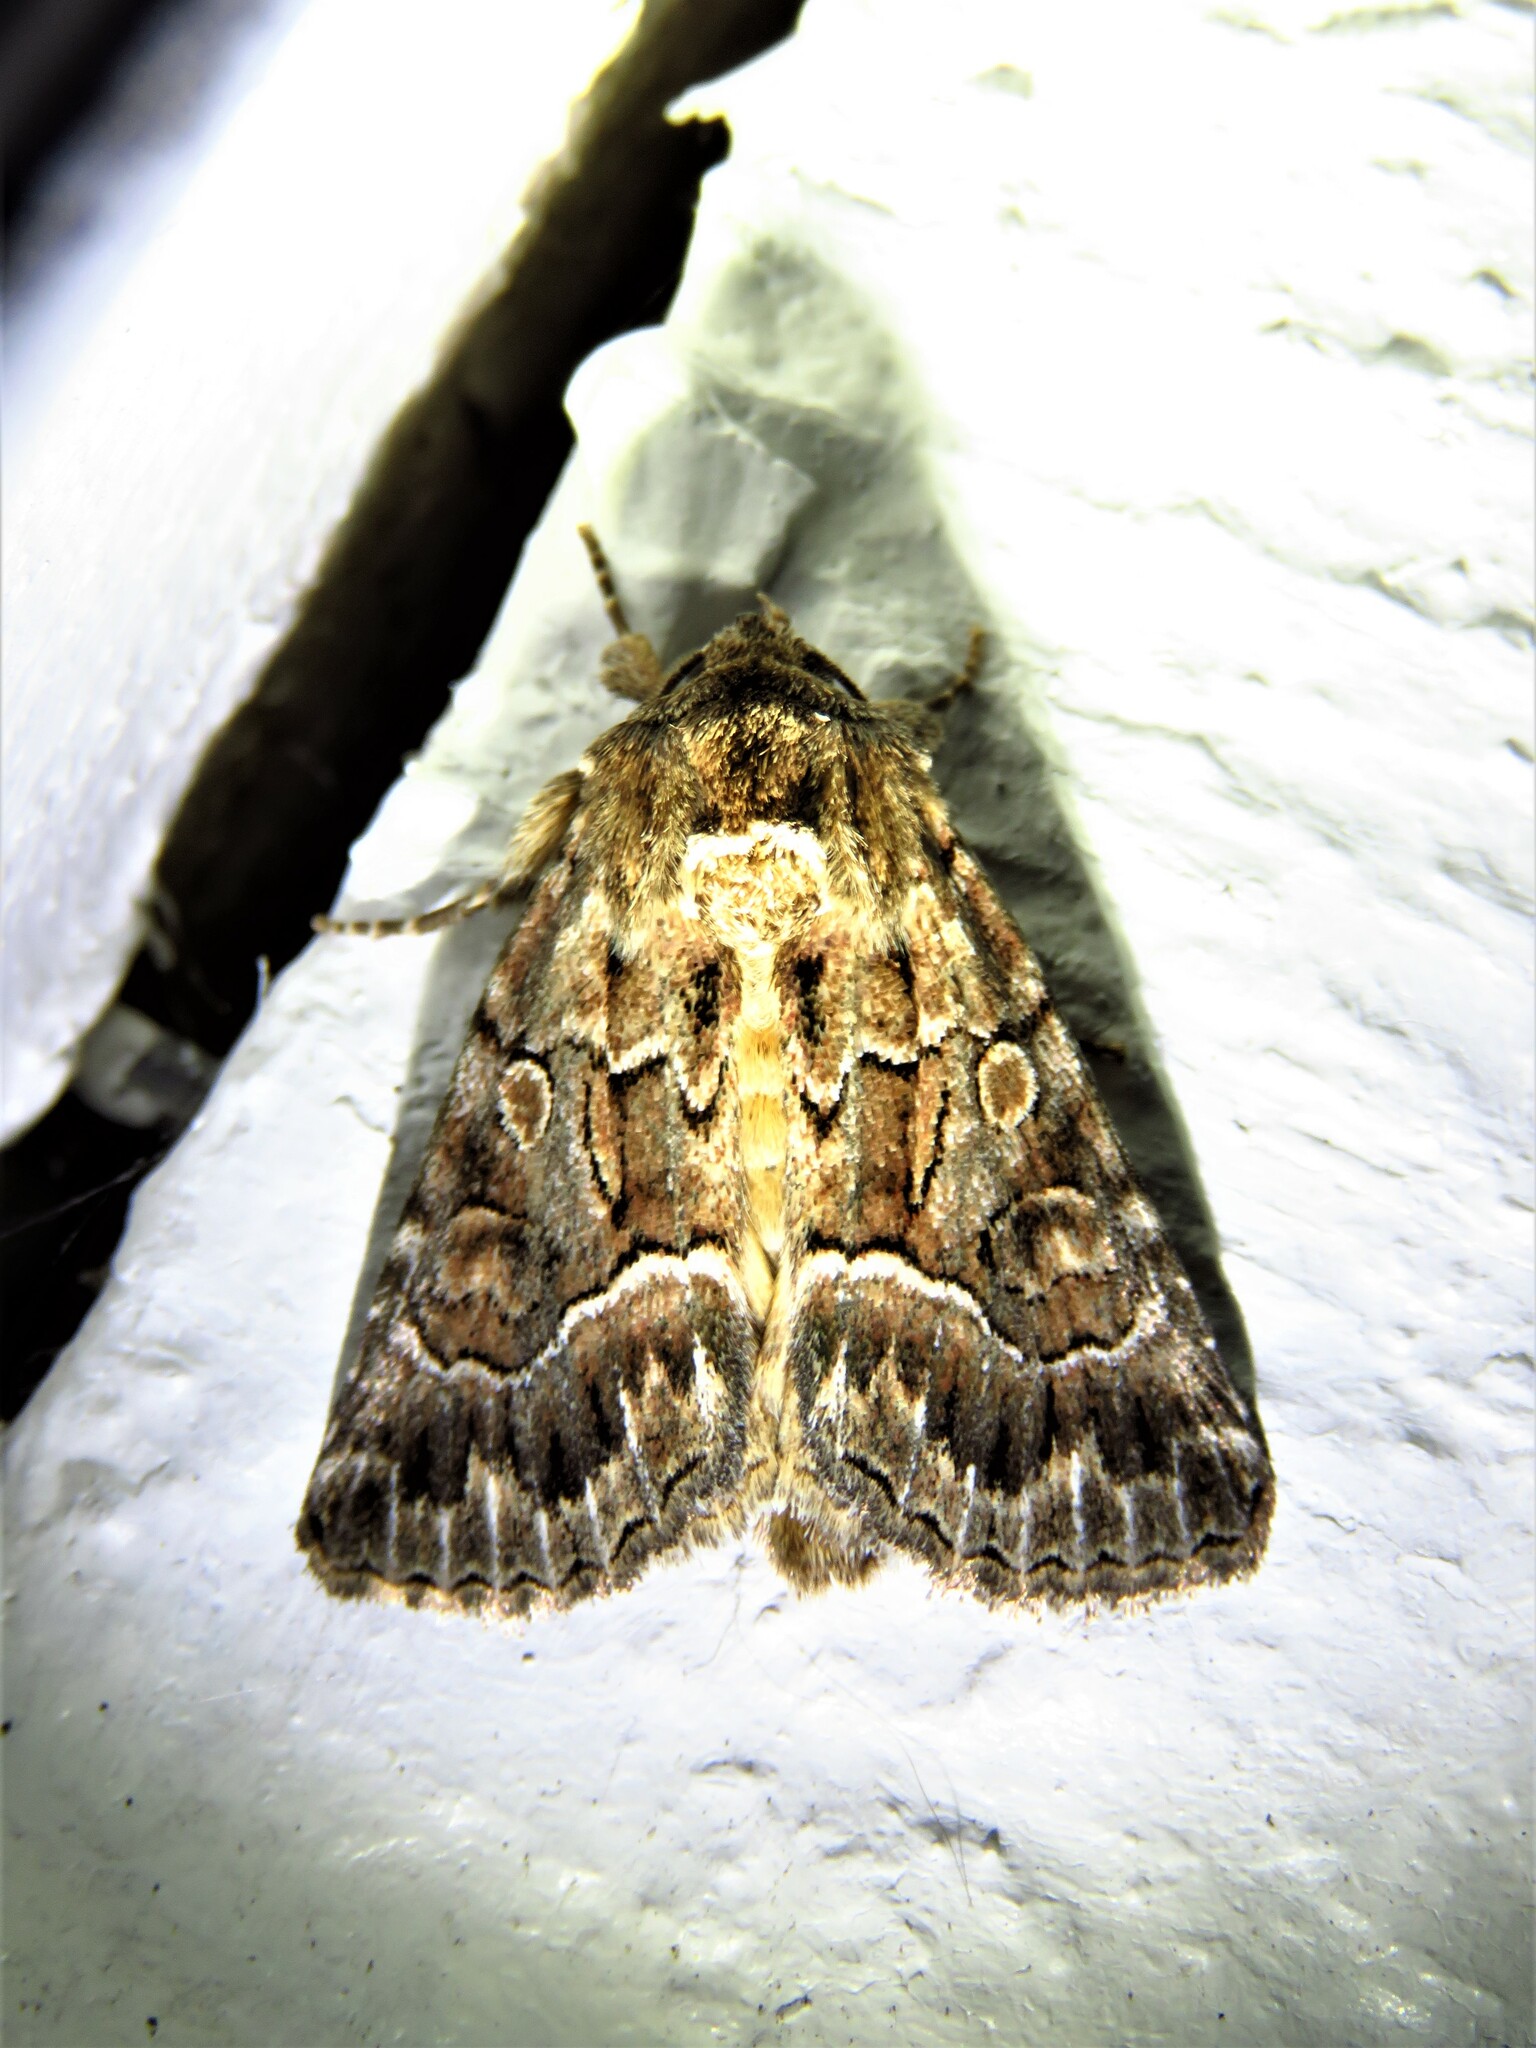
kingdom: Animalia
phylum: Arthropoda
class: Insecta
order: Lepidoptera
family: Noctuidae
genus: Thalpophila
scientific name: Thalpophila matura
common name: Straw underwing
